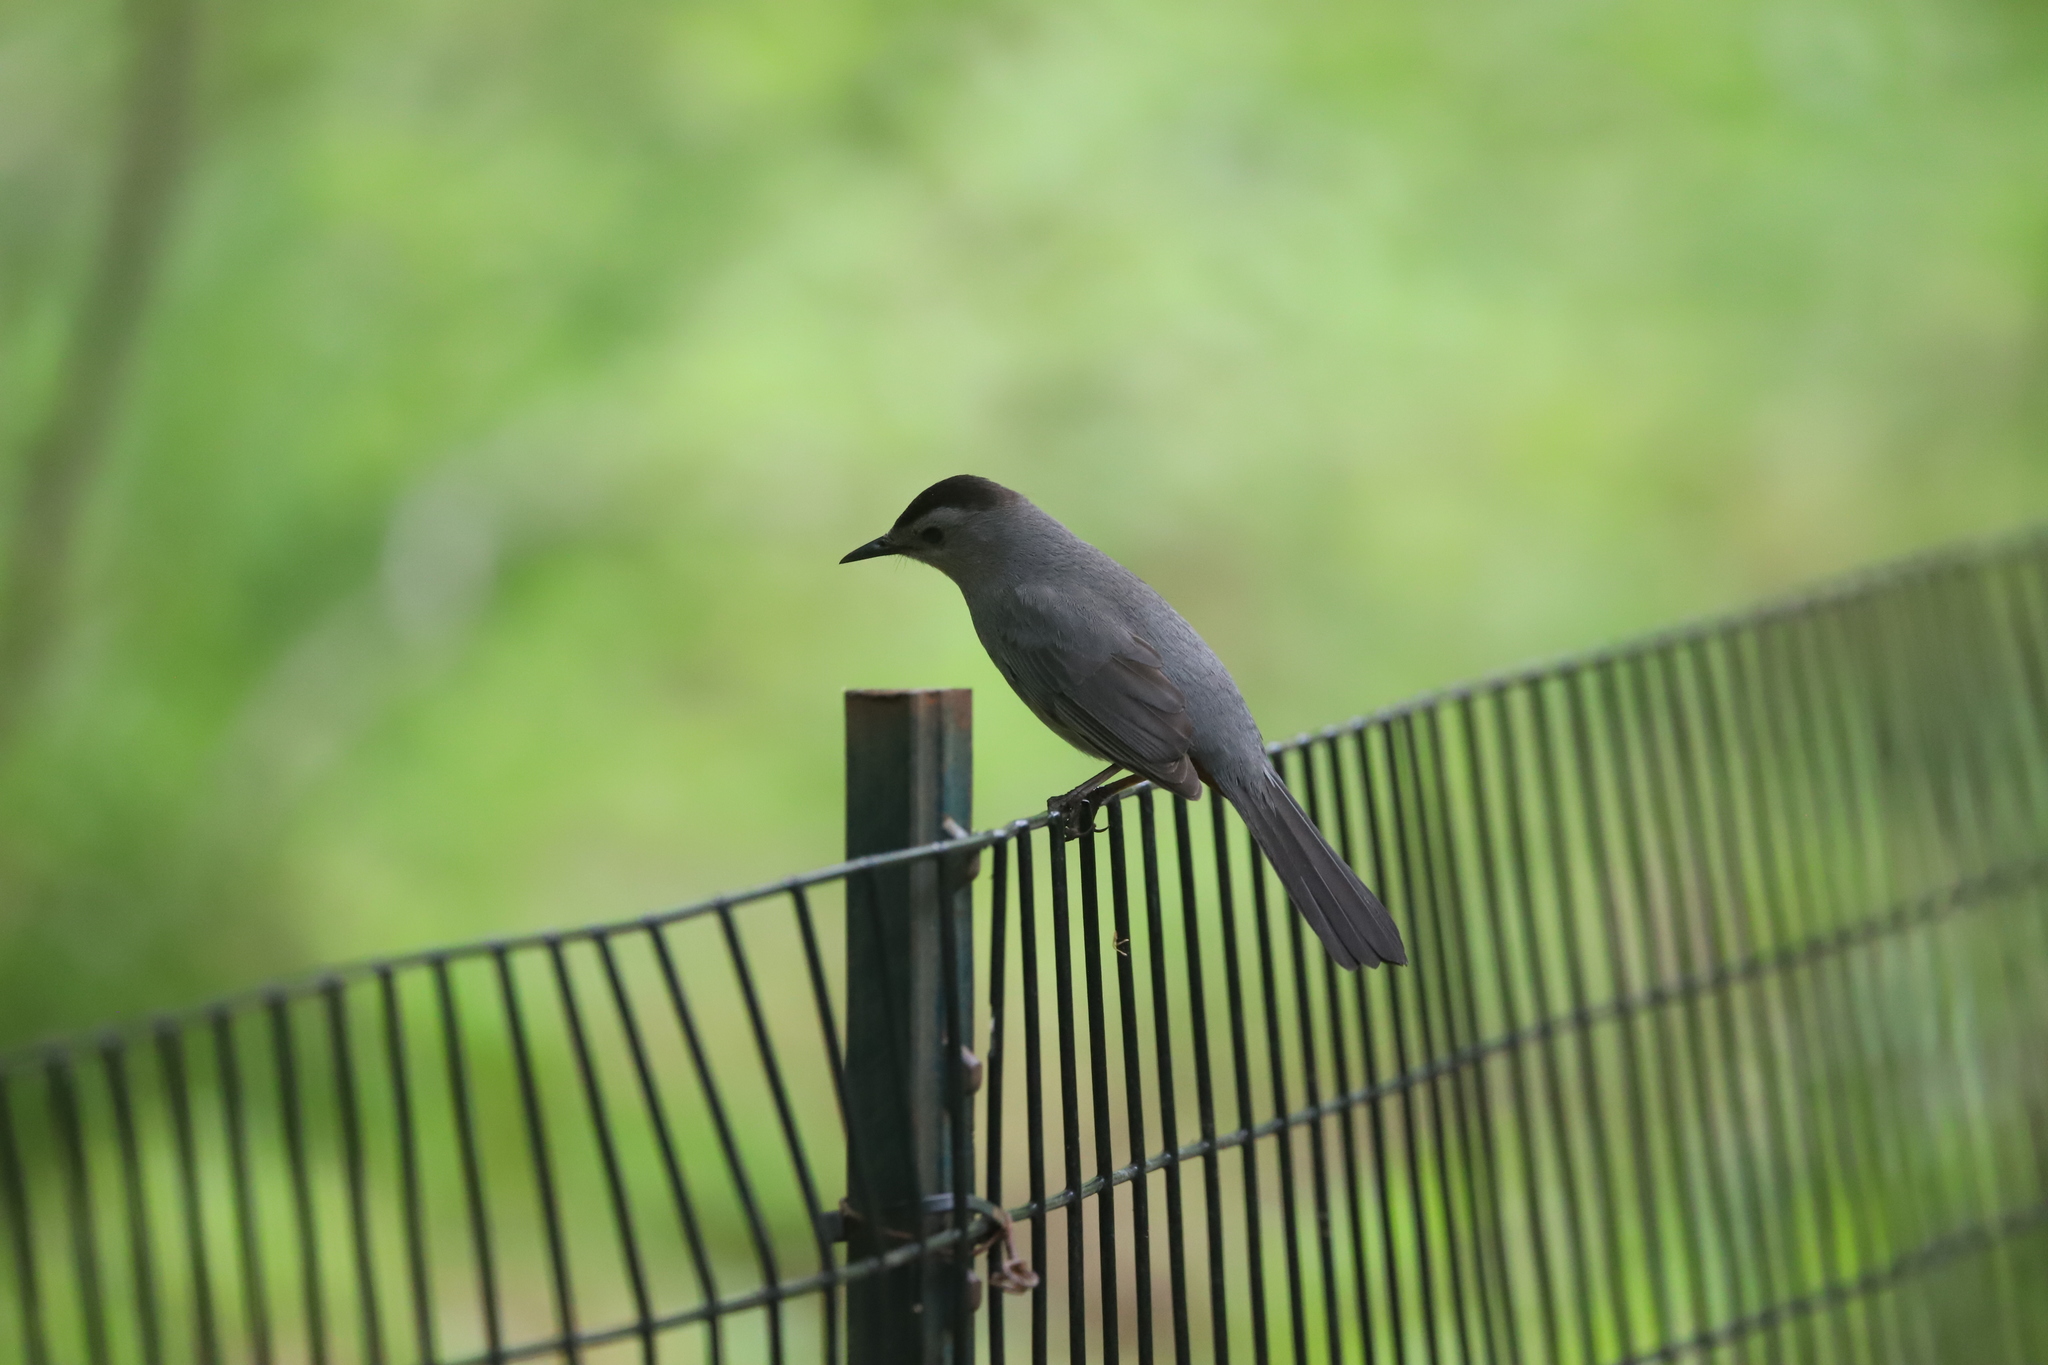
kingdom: Animalia
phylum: Chordata
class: Aves
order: Passeriformes
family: Mimidae
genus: Dumetella
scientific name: Dumetella carolinensis
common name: Gray catbird
